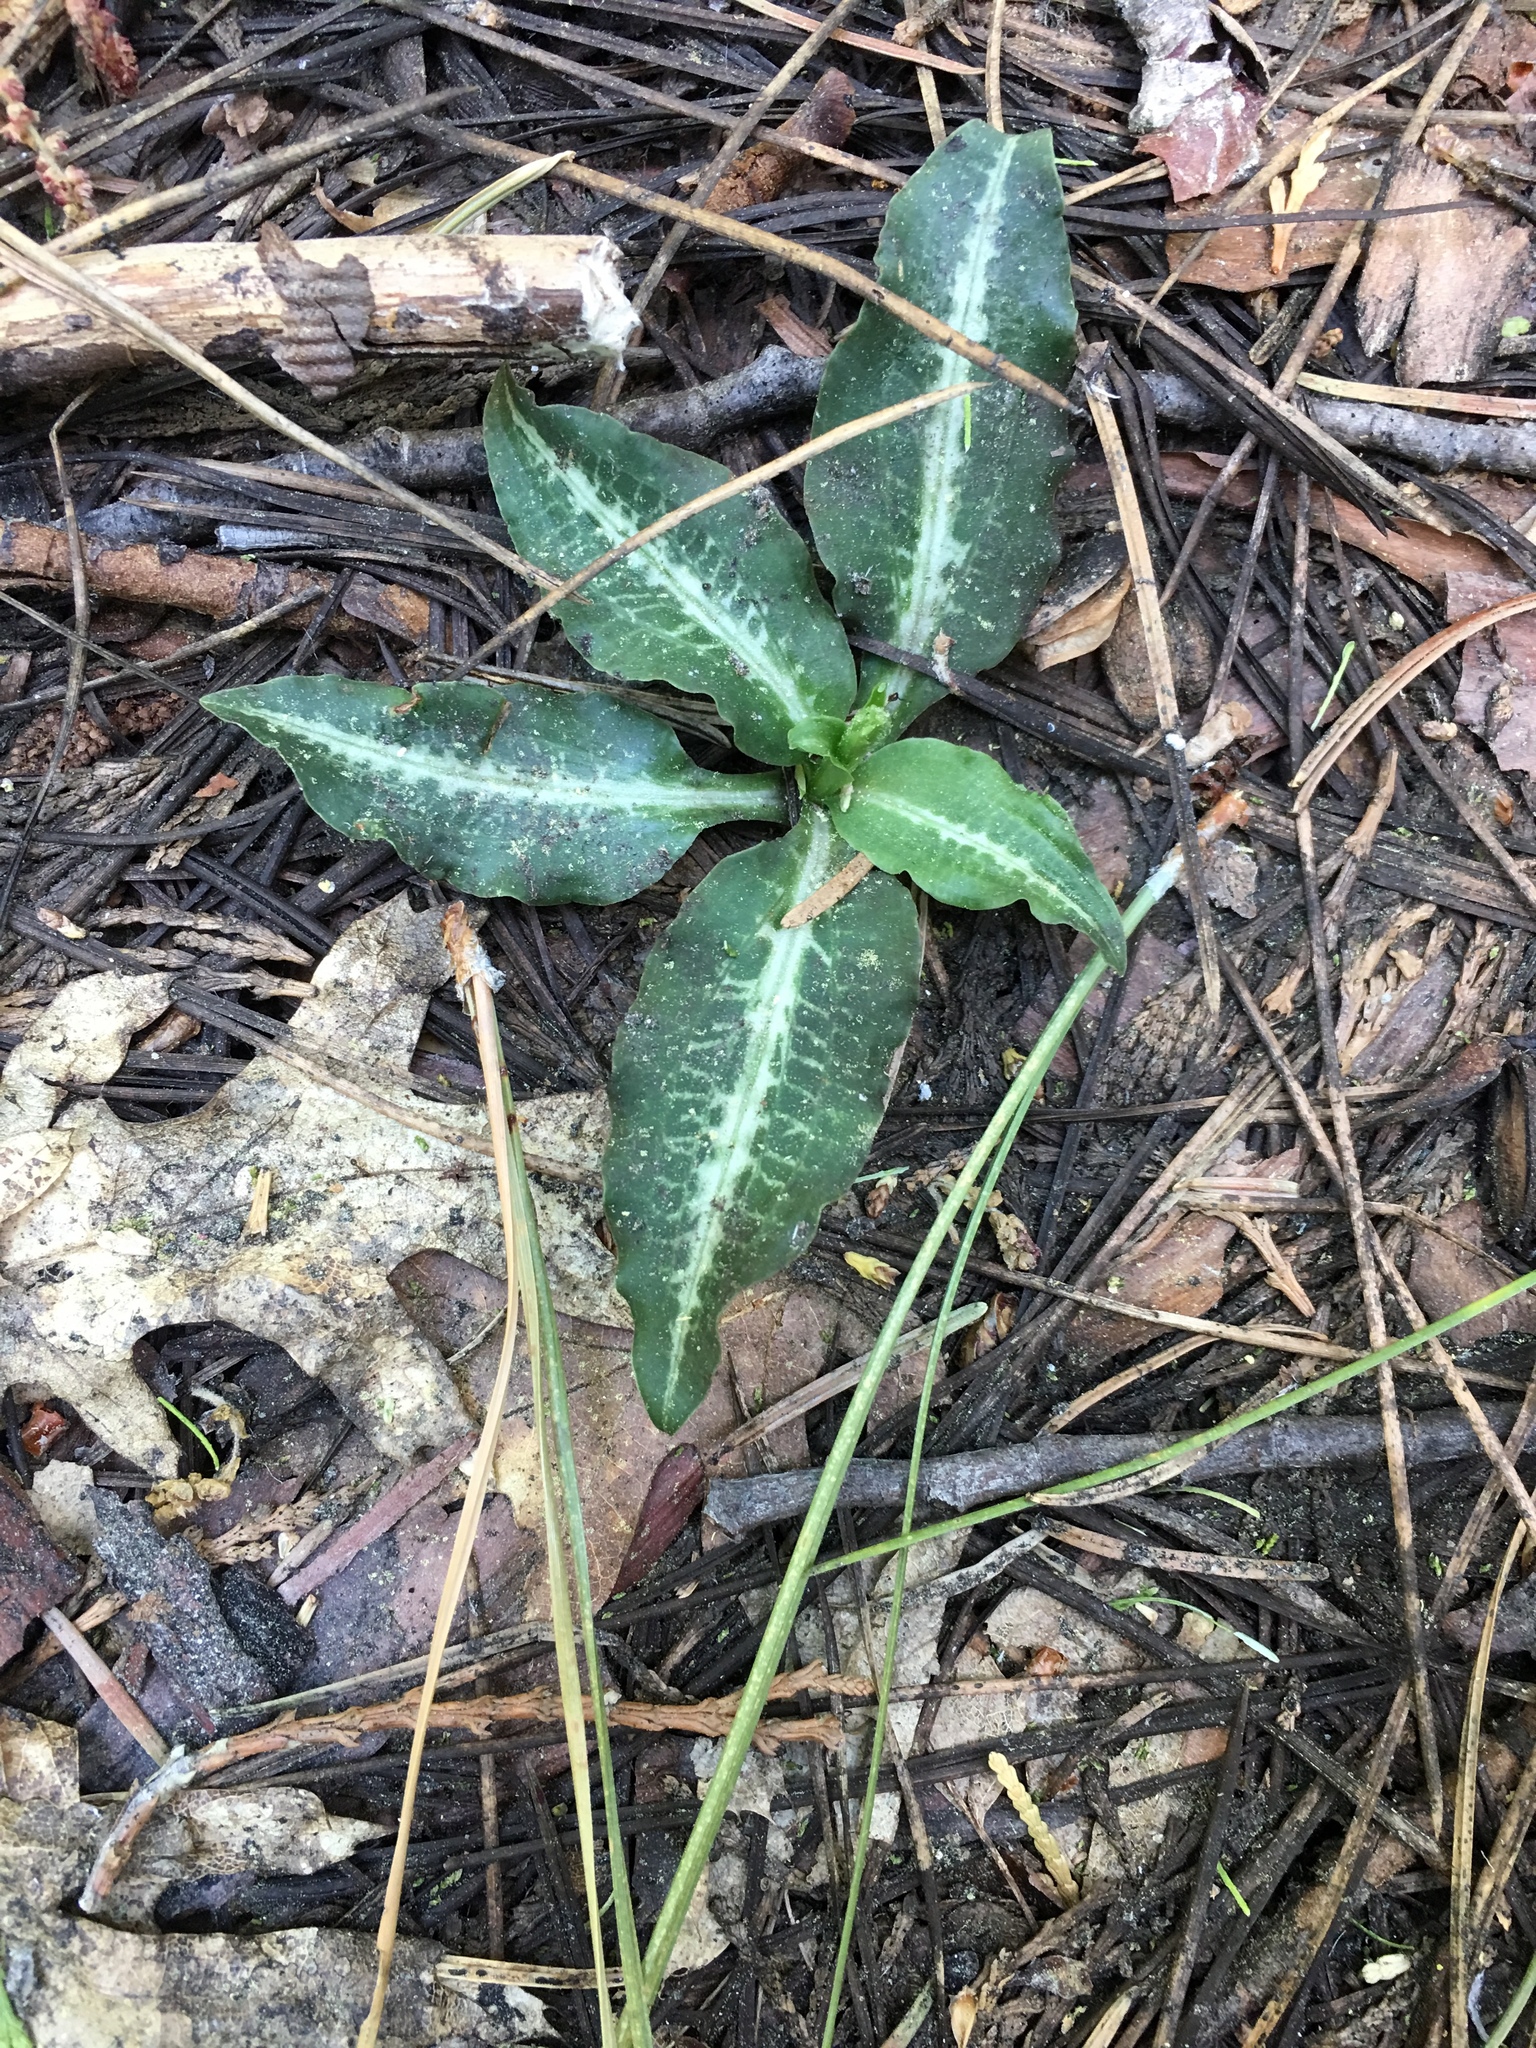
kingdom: Plantae
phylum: Tracheophyta
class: Liliopsida
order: Asparagales
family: Orchidaceae
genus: Goodyera
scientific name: Goodyera oblongifolia
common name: Giant rattlesnake-plantain
